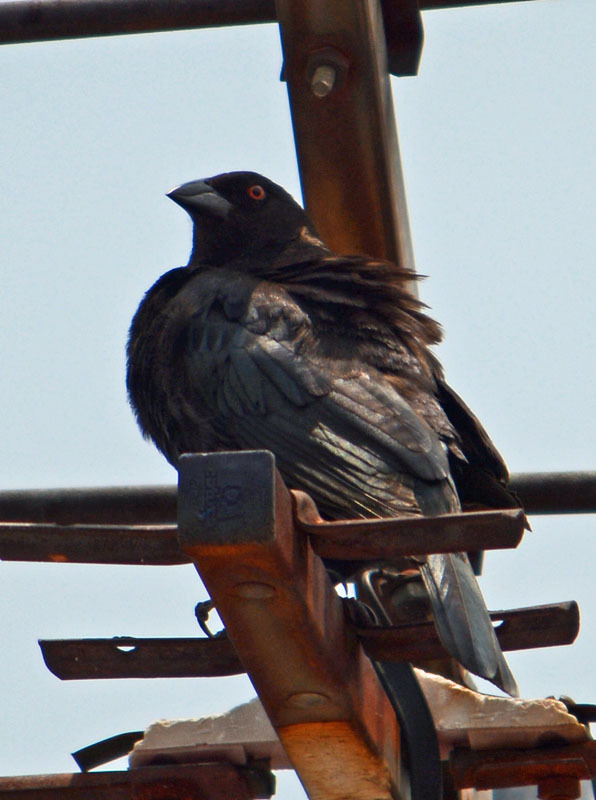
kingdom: Animalia
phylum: Chordata
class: Aves
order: Passeriformes
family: Icteridae
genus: Molothrus
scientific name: Molothrus aeneus
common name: Bronzed cowbird
